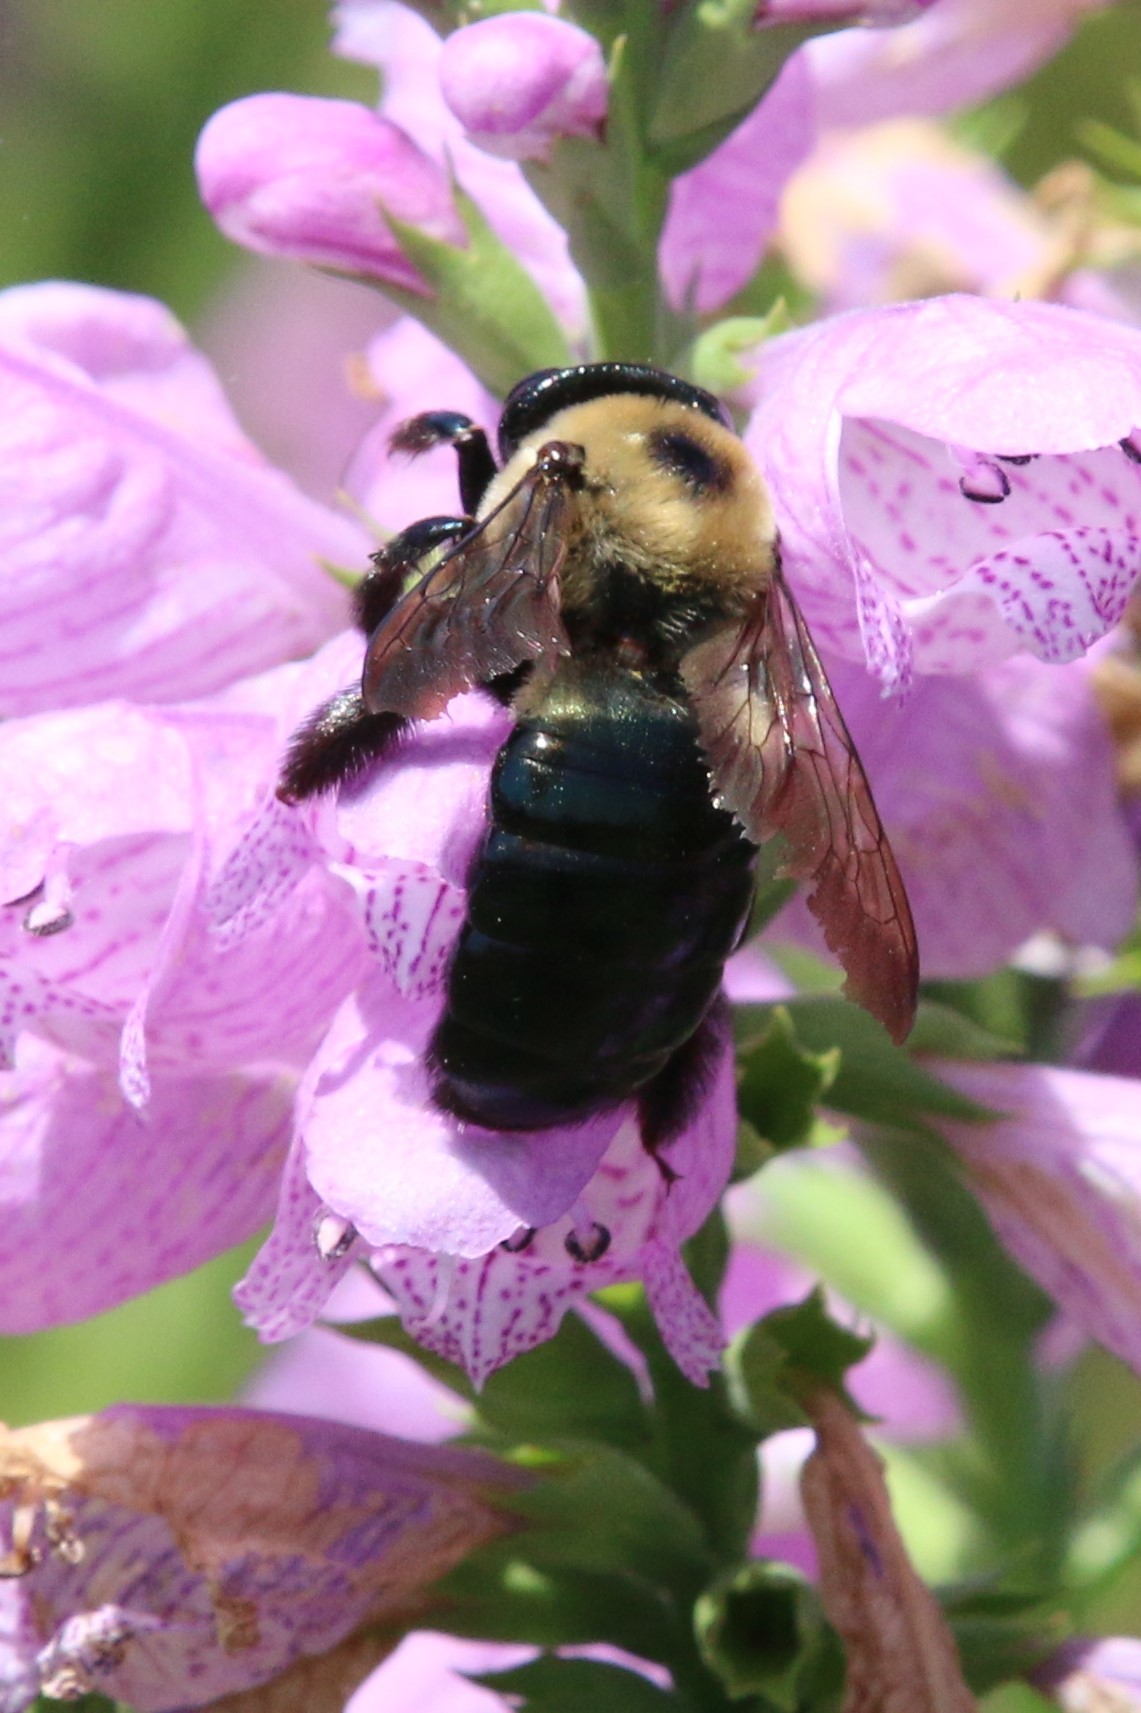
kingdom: Animalia
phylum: Arthropoda
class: Insecta
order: Hymenoptera
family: Apidae
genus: Xylocopa
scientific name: Xylocopa virginica
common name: Carpenter bee
